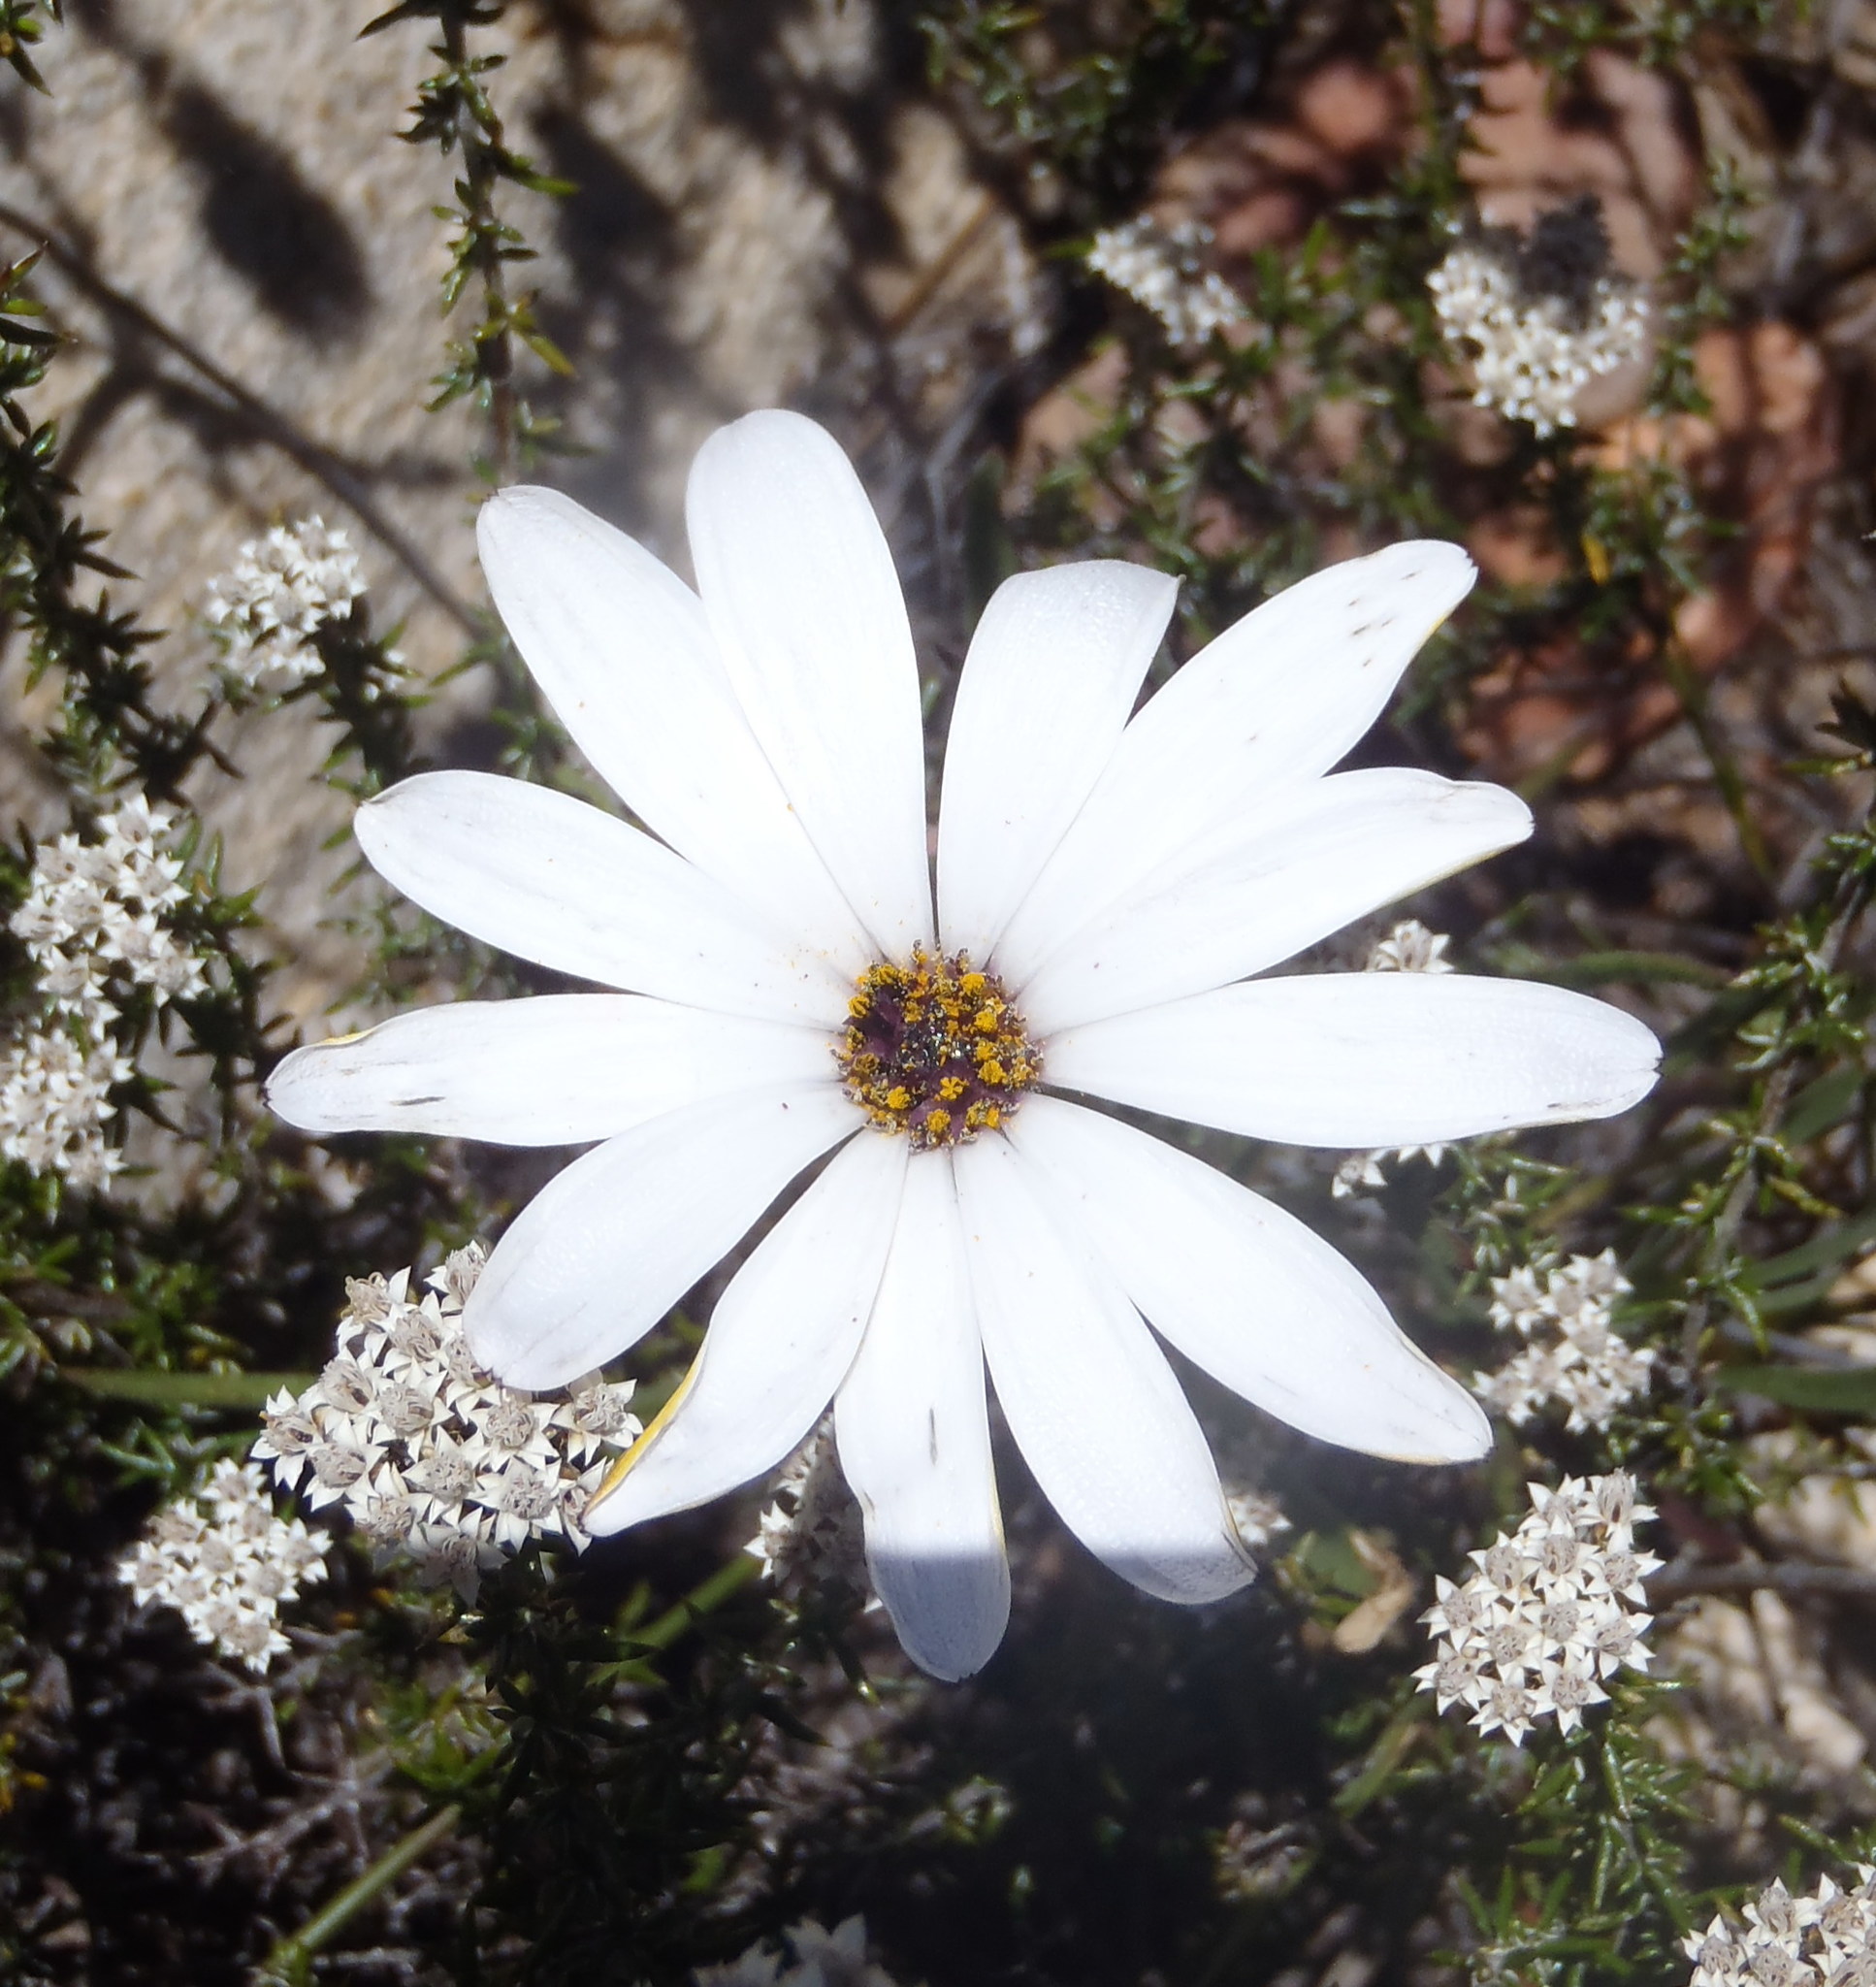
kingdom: Plantae
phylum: Tracheophyta
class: Magnoliopsida
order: Asterales
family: Asteraceae
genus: Dimorphotheca
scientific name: Dimorphotheca montana
